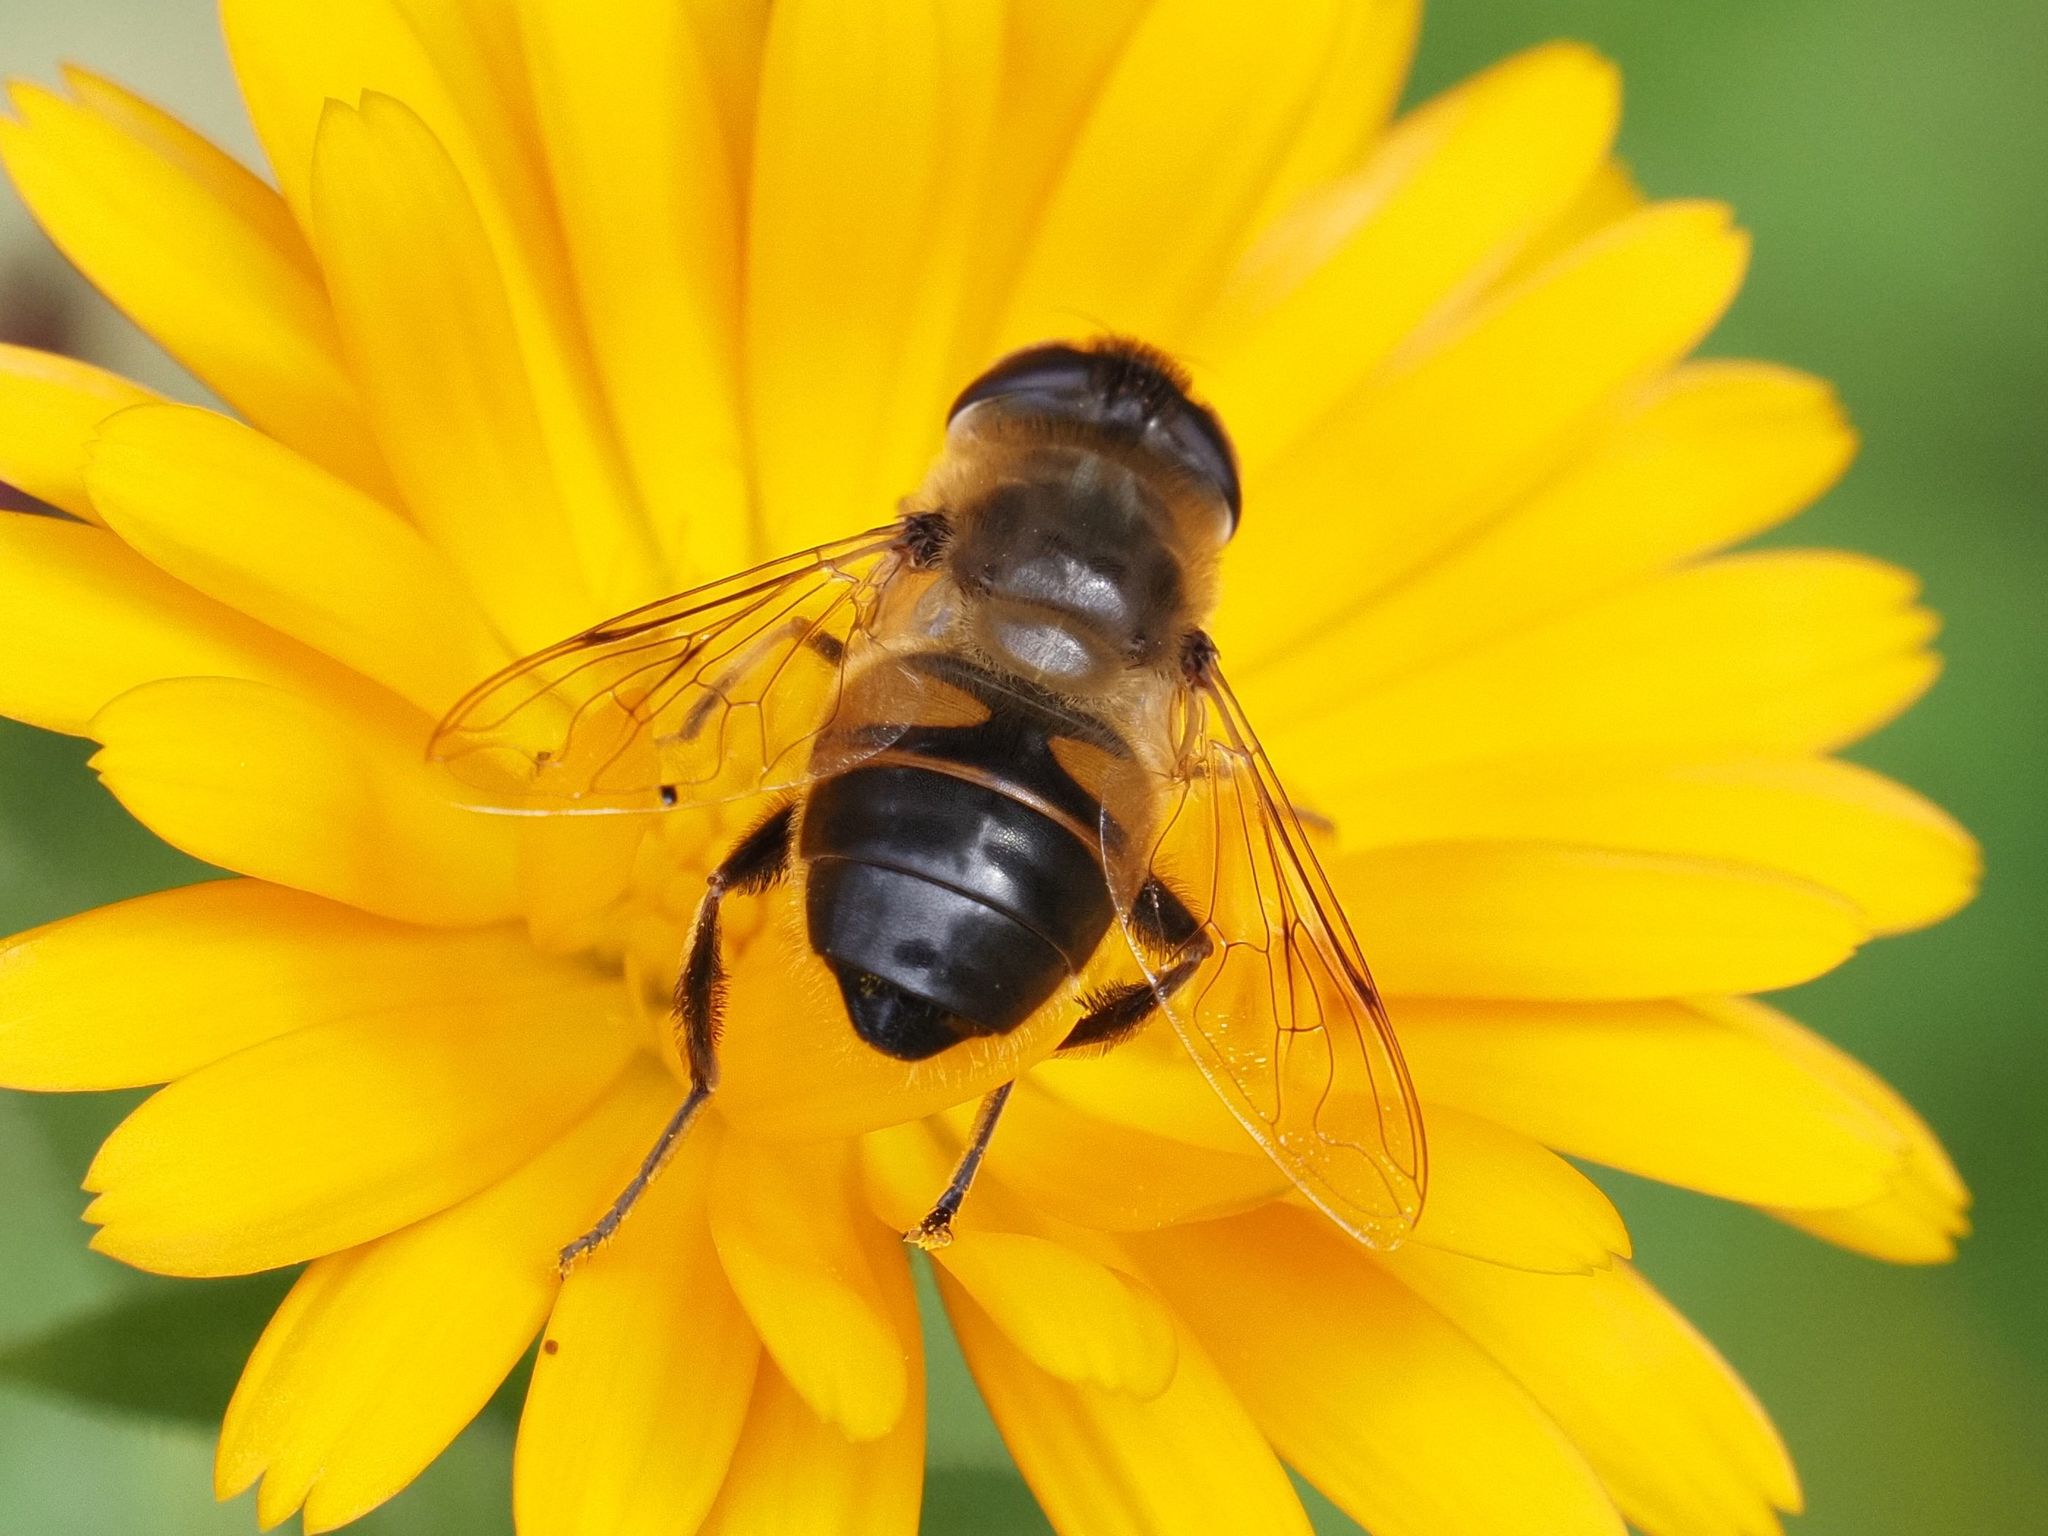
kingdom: Animalia
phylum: Arthropoda
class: Insecta
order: Diptera
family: Syrphidae
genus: Eristalis
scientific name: Eristalis tenax
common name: Drone fly
